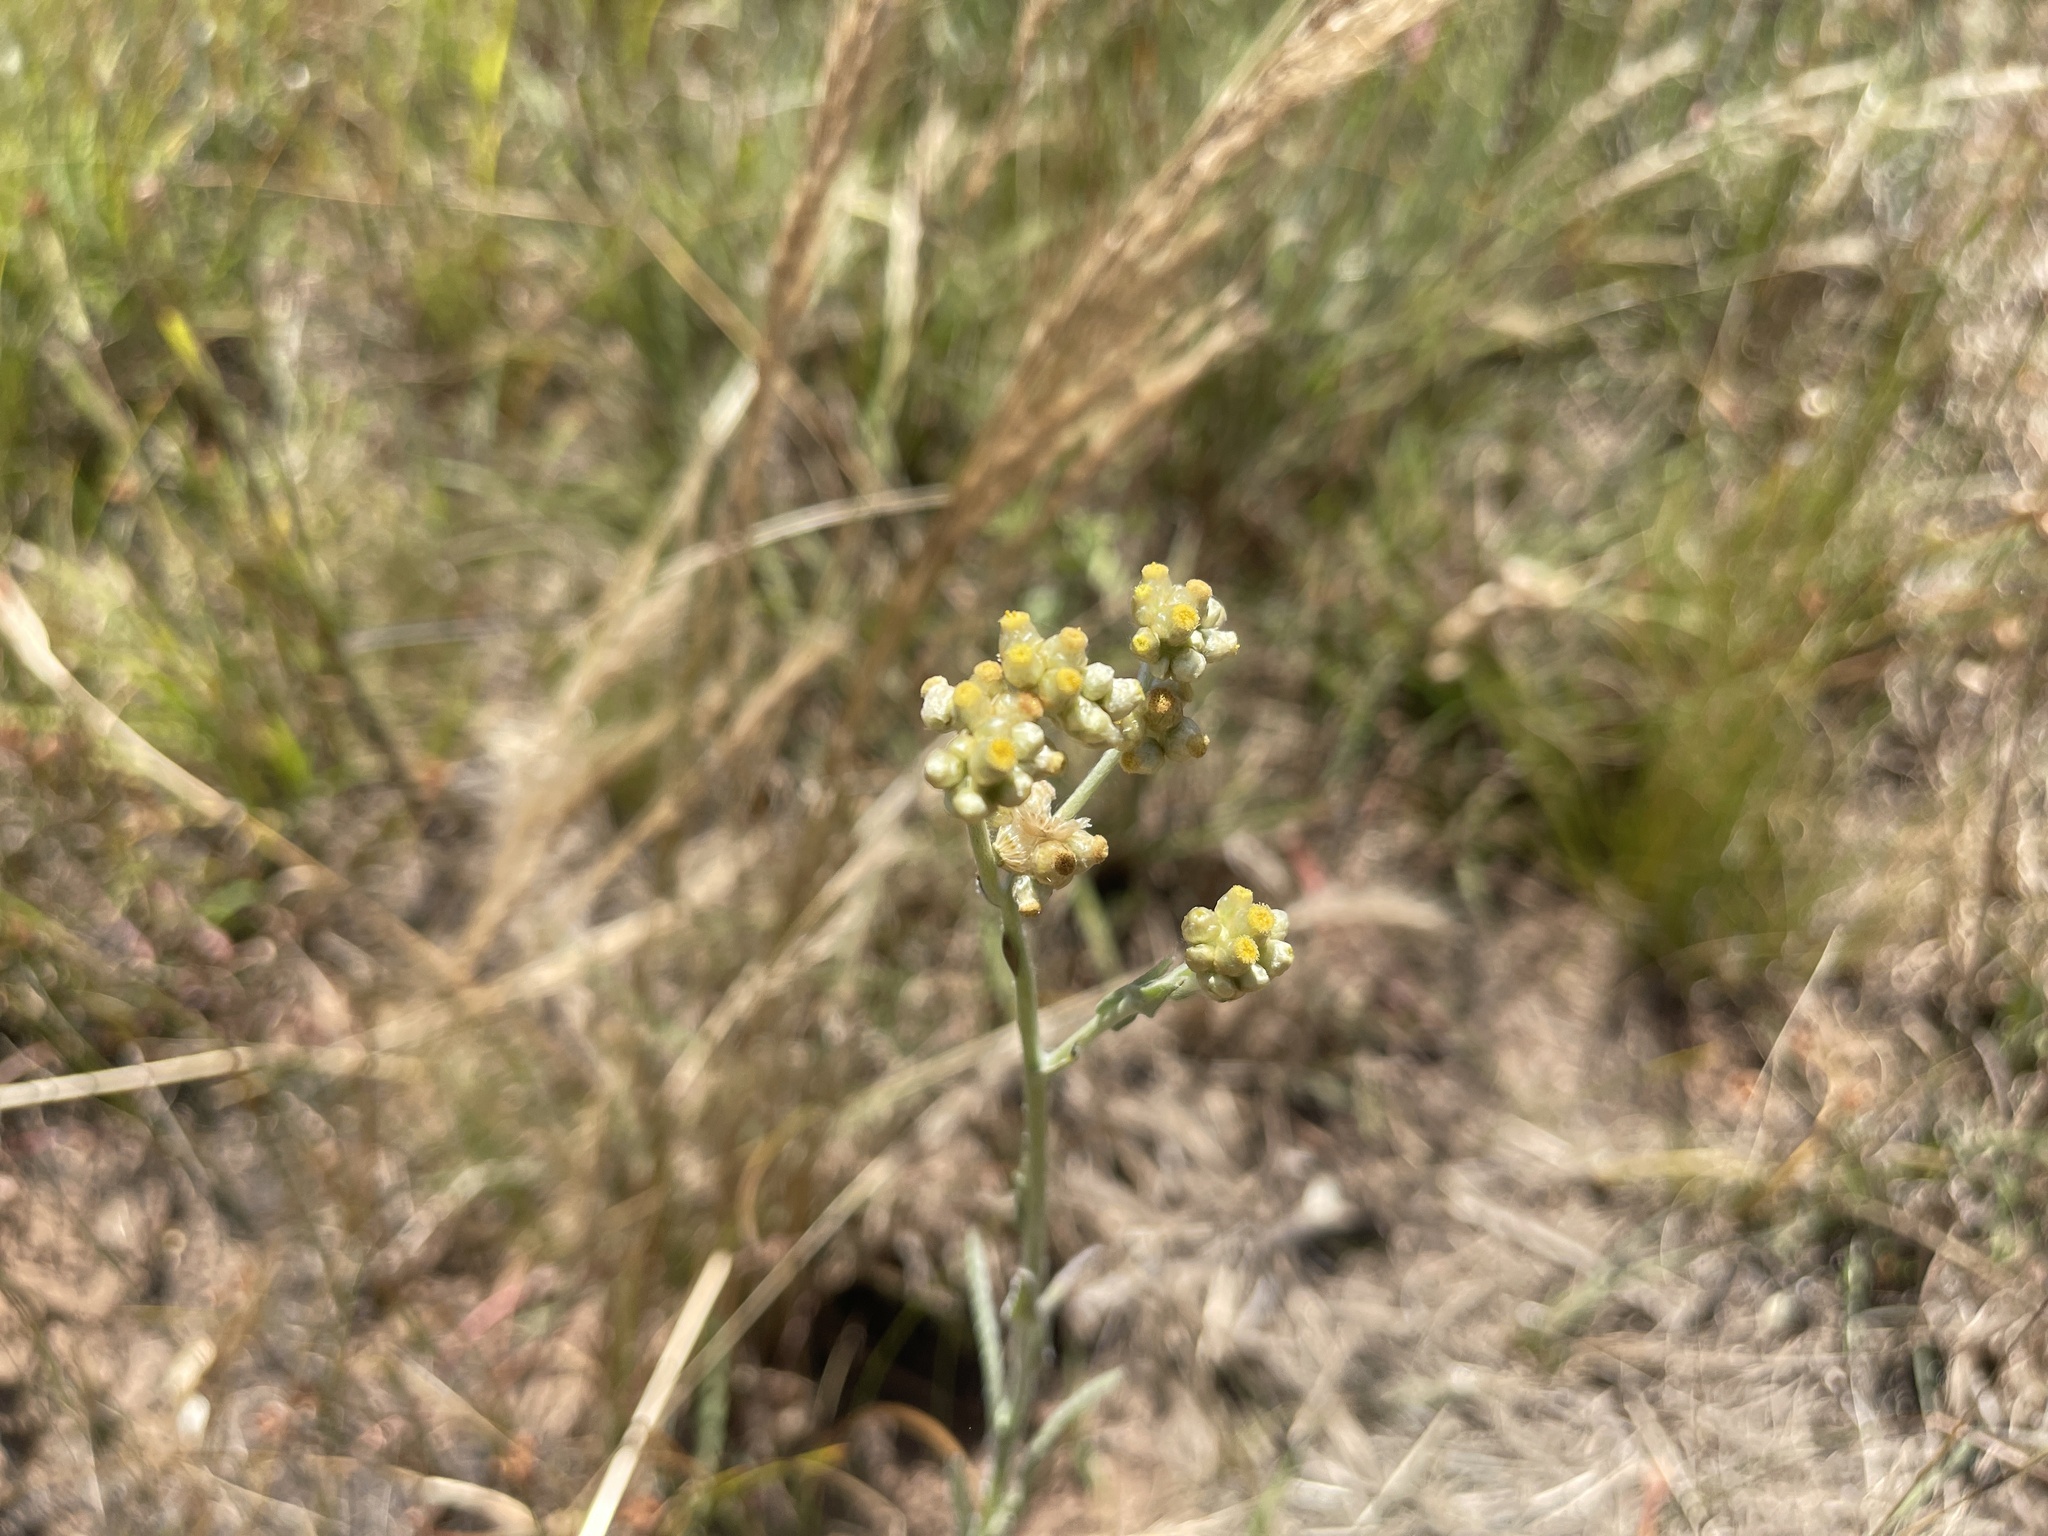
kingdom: Plantae
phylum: Tracheophyta
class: Magnoliopsida
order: Asterales
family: Asteraceae
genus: Helichrysum
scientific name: Helichrysum luteoalbum
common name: Daisy
